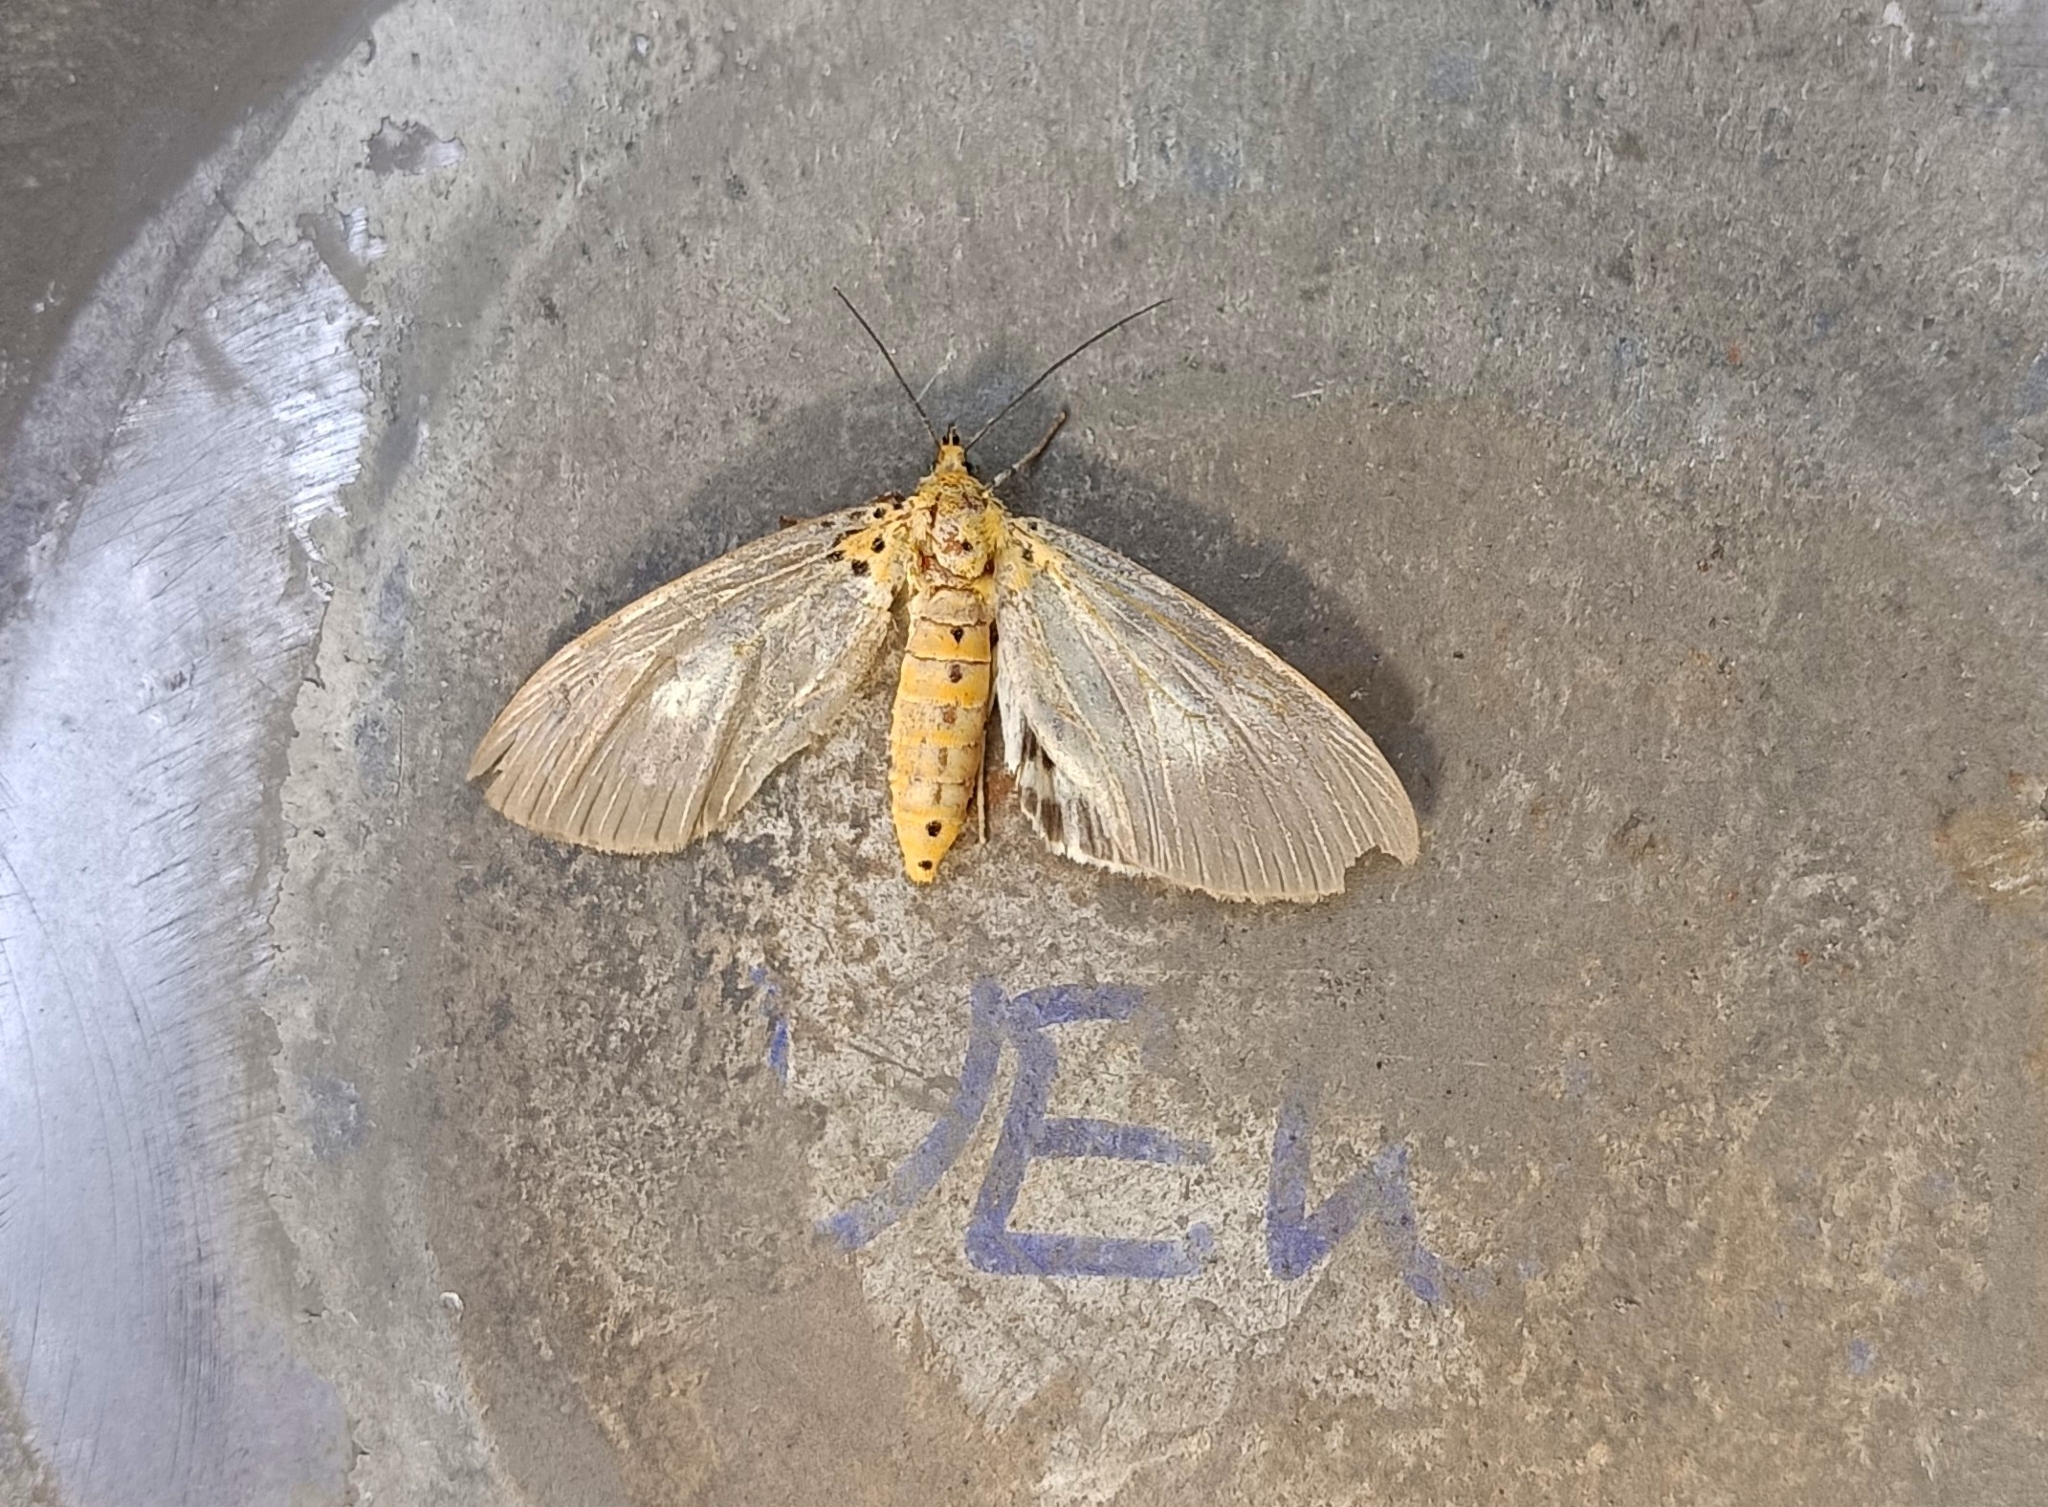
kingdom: Animalia
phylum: Arthropoda
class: Insecta
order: Lepidoptera
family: Erebidae
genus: Asota
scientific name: Asota canaraica
